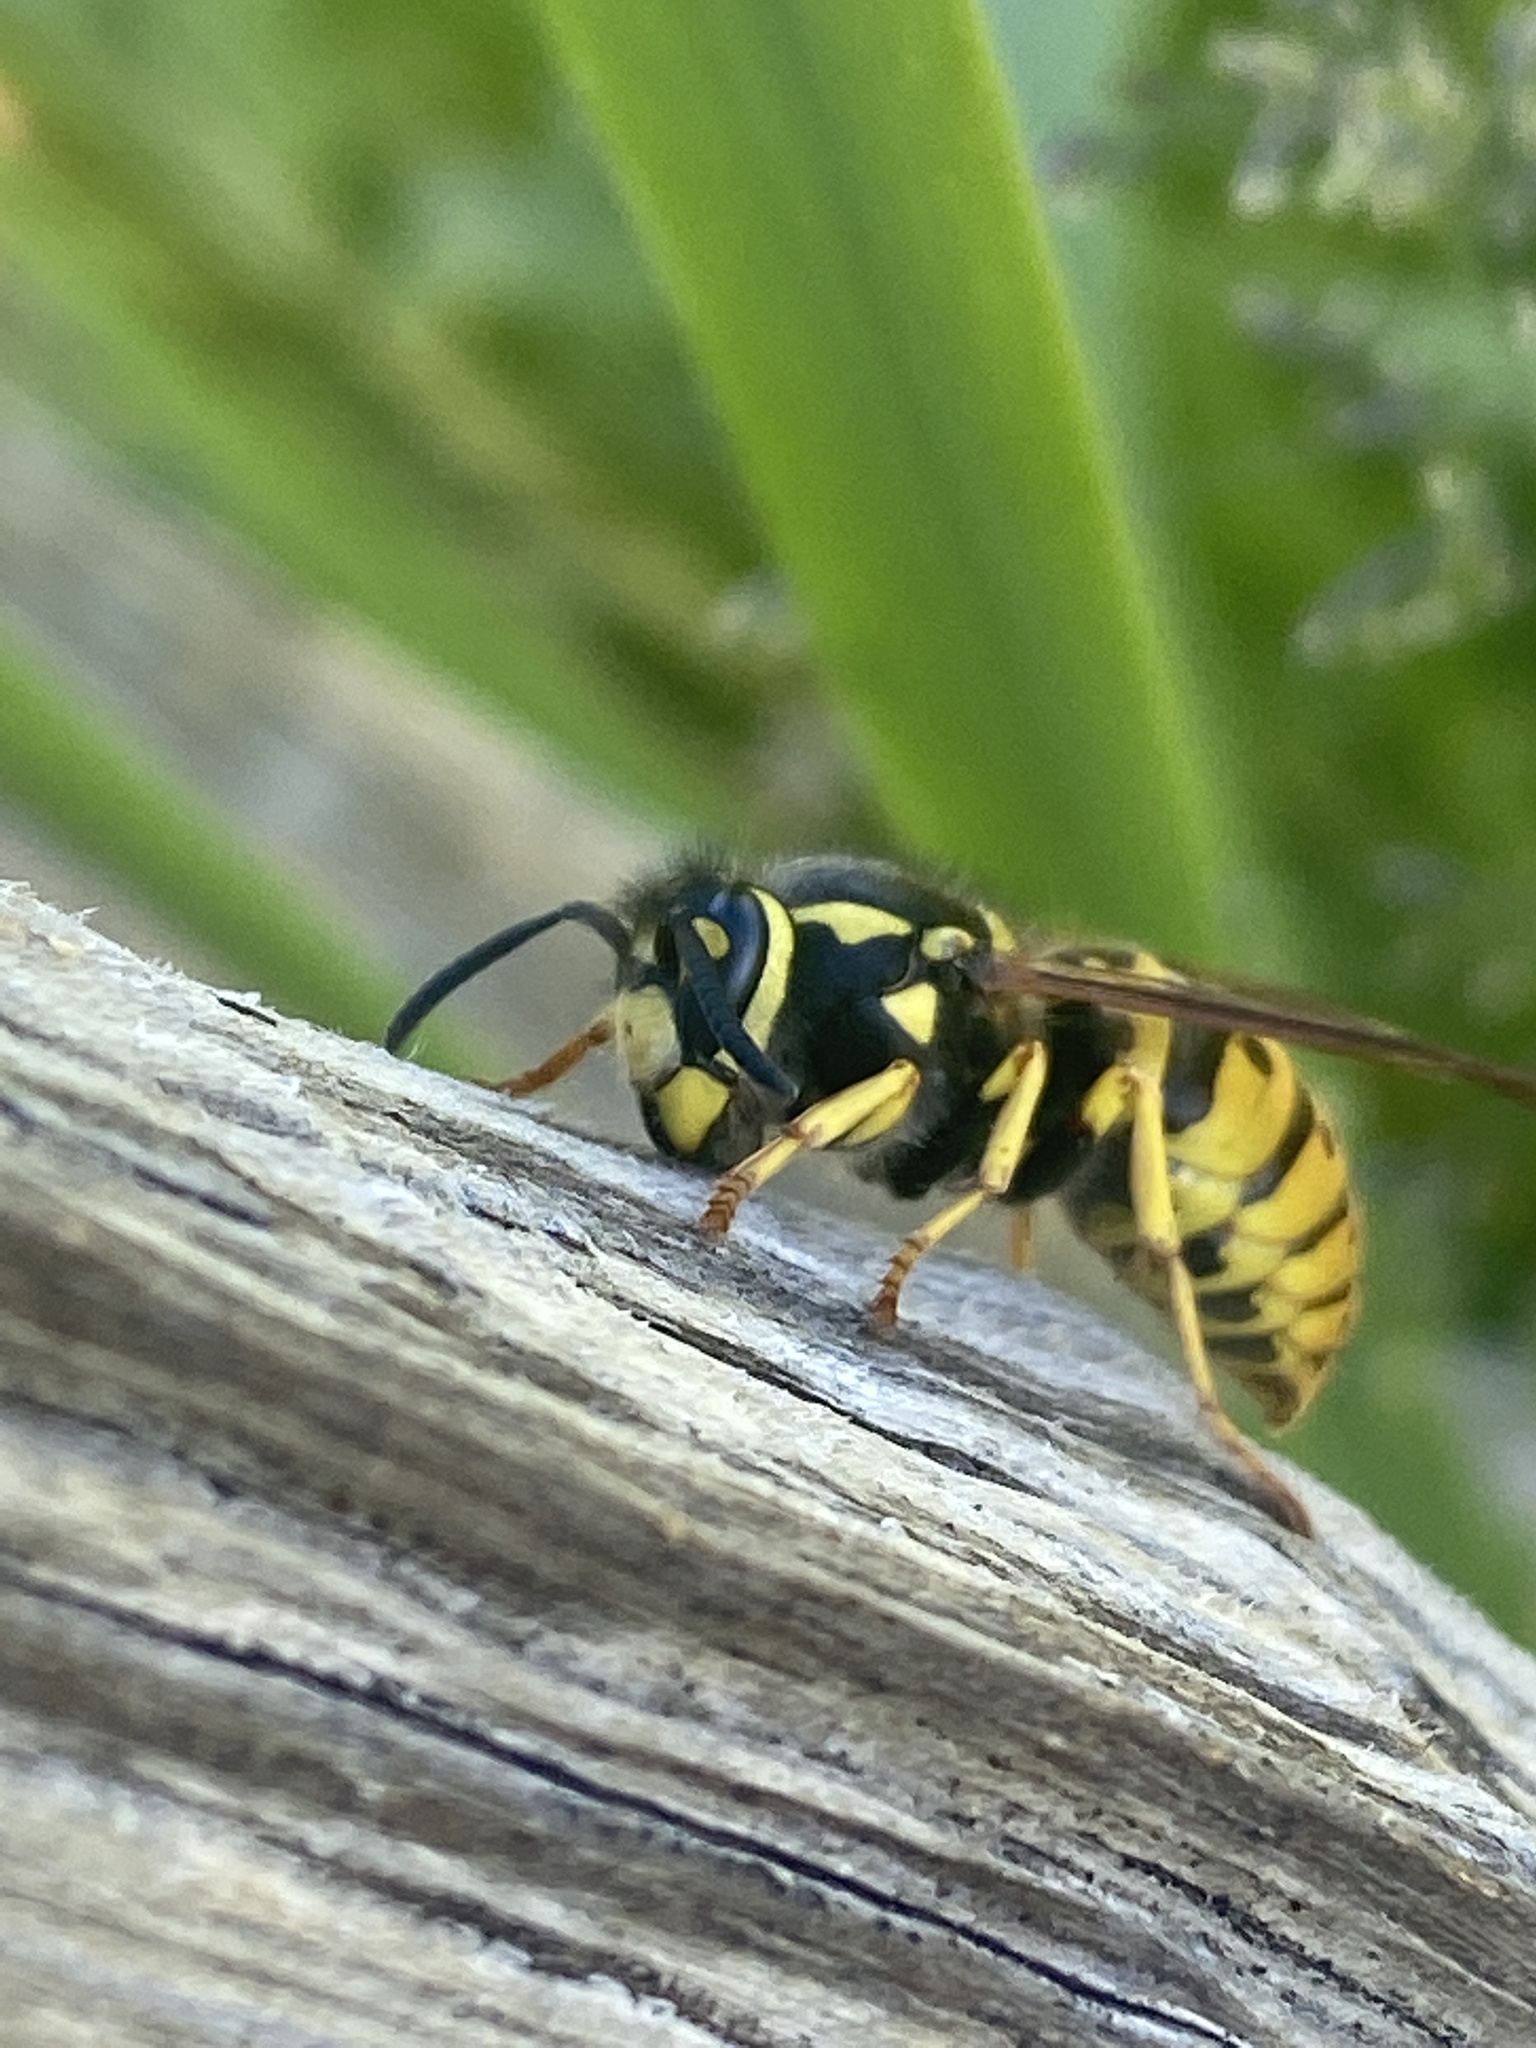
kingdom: Animalia
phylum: Arthropoda
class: Insecta
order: Hymenoptera
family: Vespidae
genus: Vespula
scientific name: Vespula germanica
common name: German wasp
